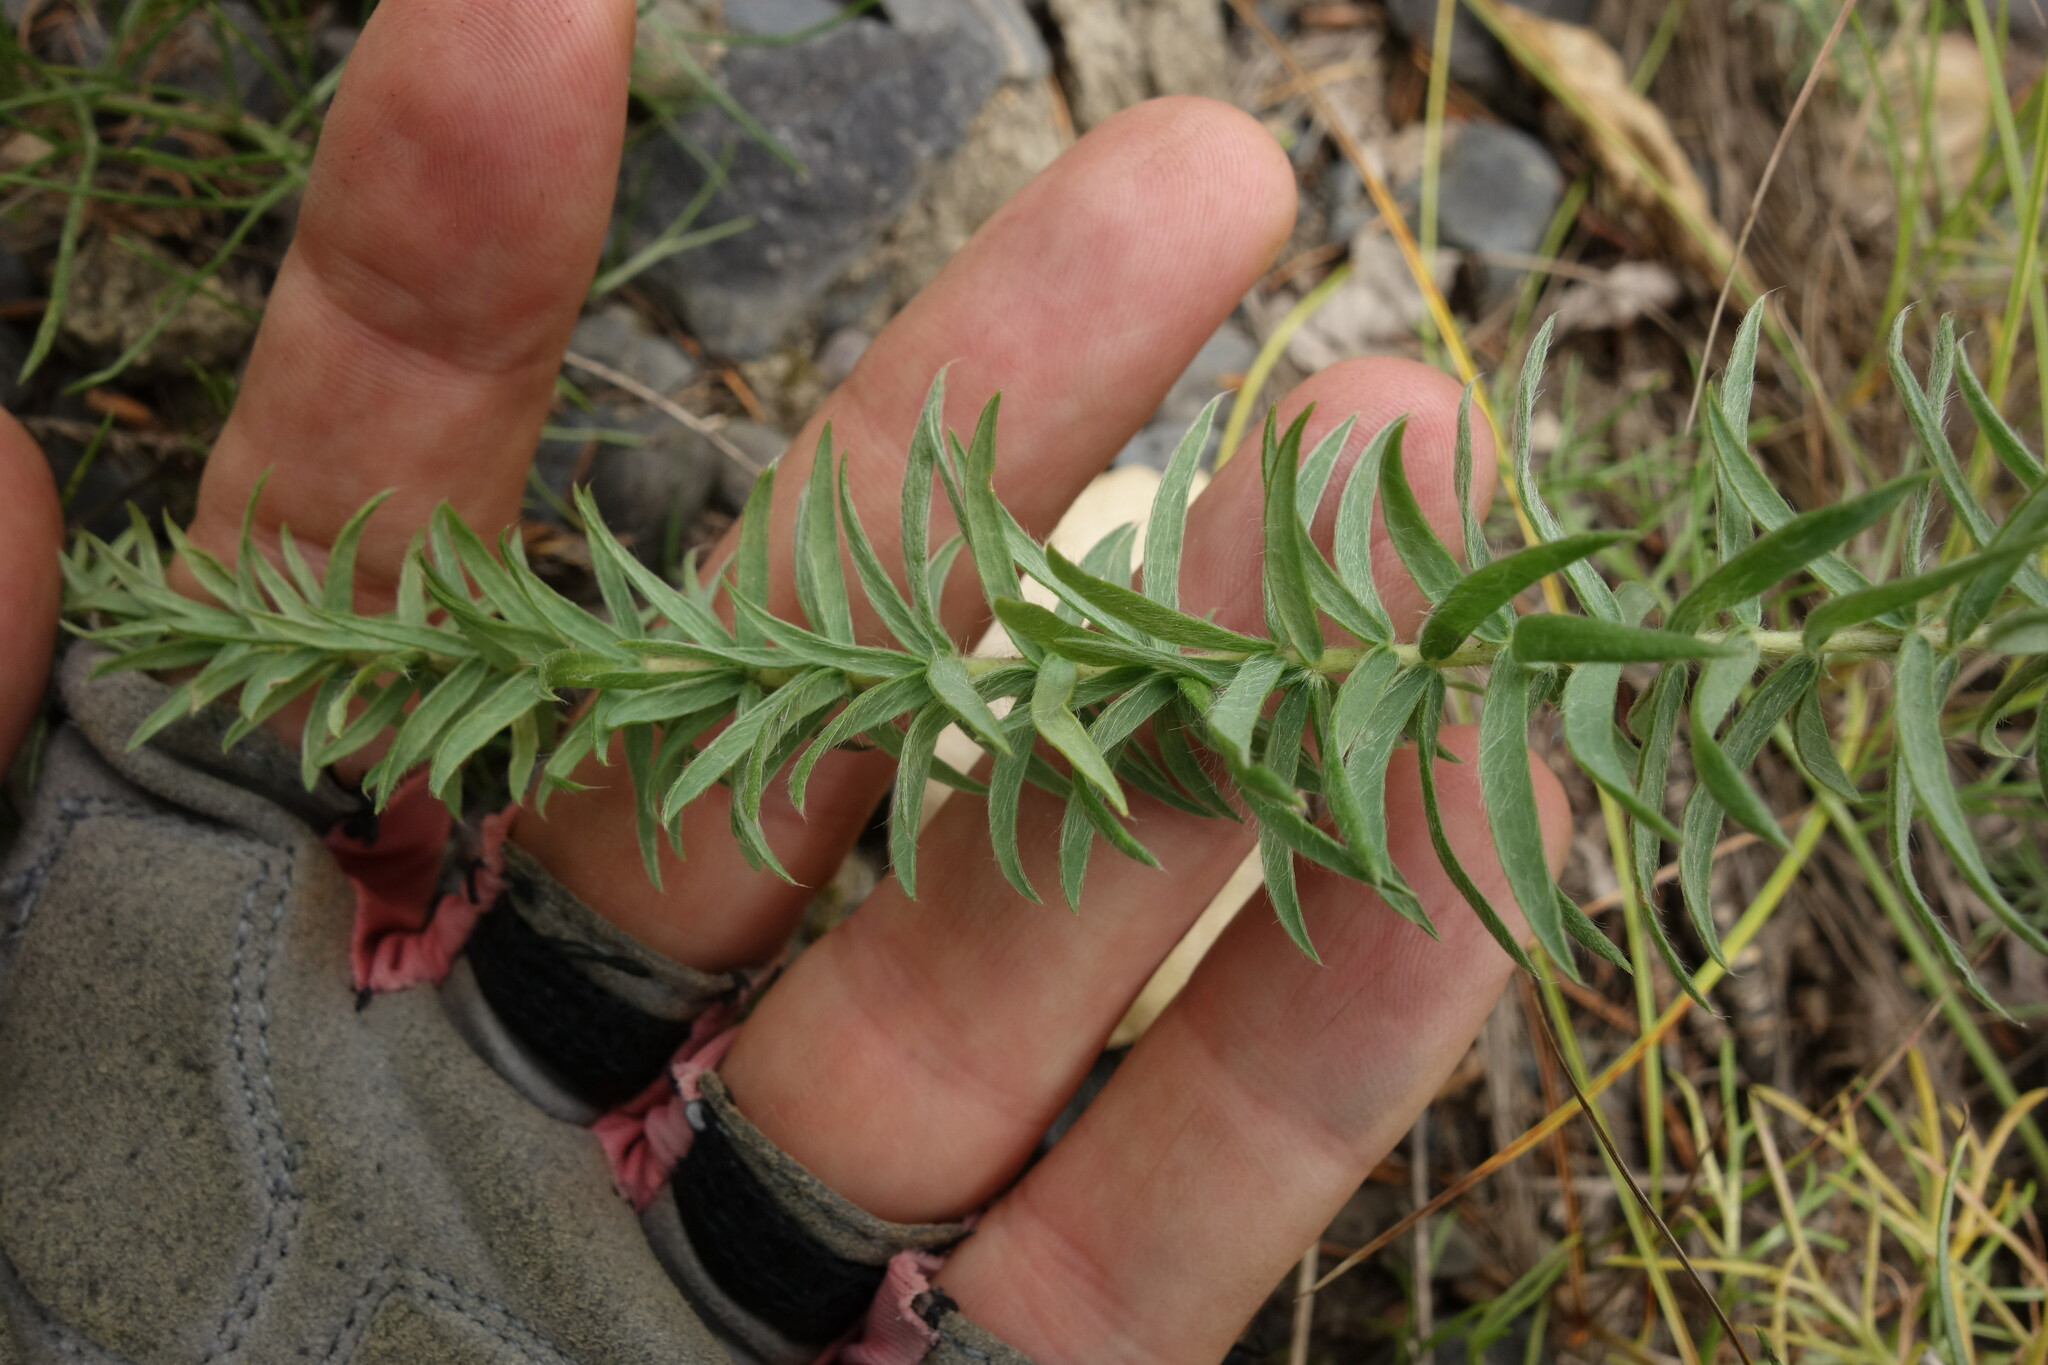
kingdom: Plantae
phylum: Tracheophyta
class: Magnoliopsida
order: Fabales
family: Fabaceae
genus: Oxytropis
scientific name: Oxytropis myriophylla
